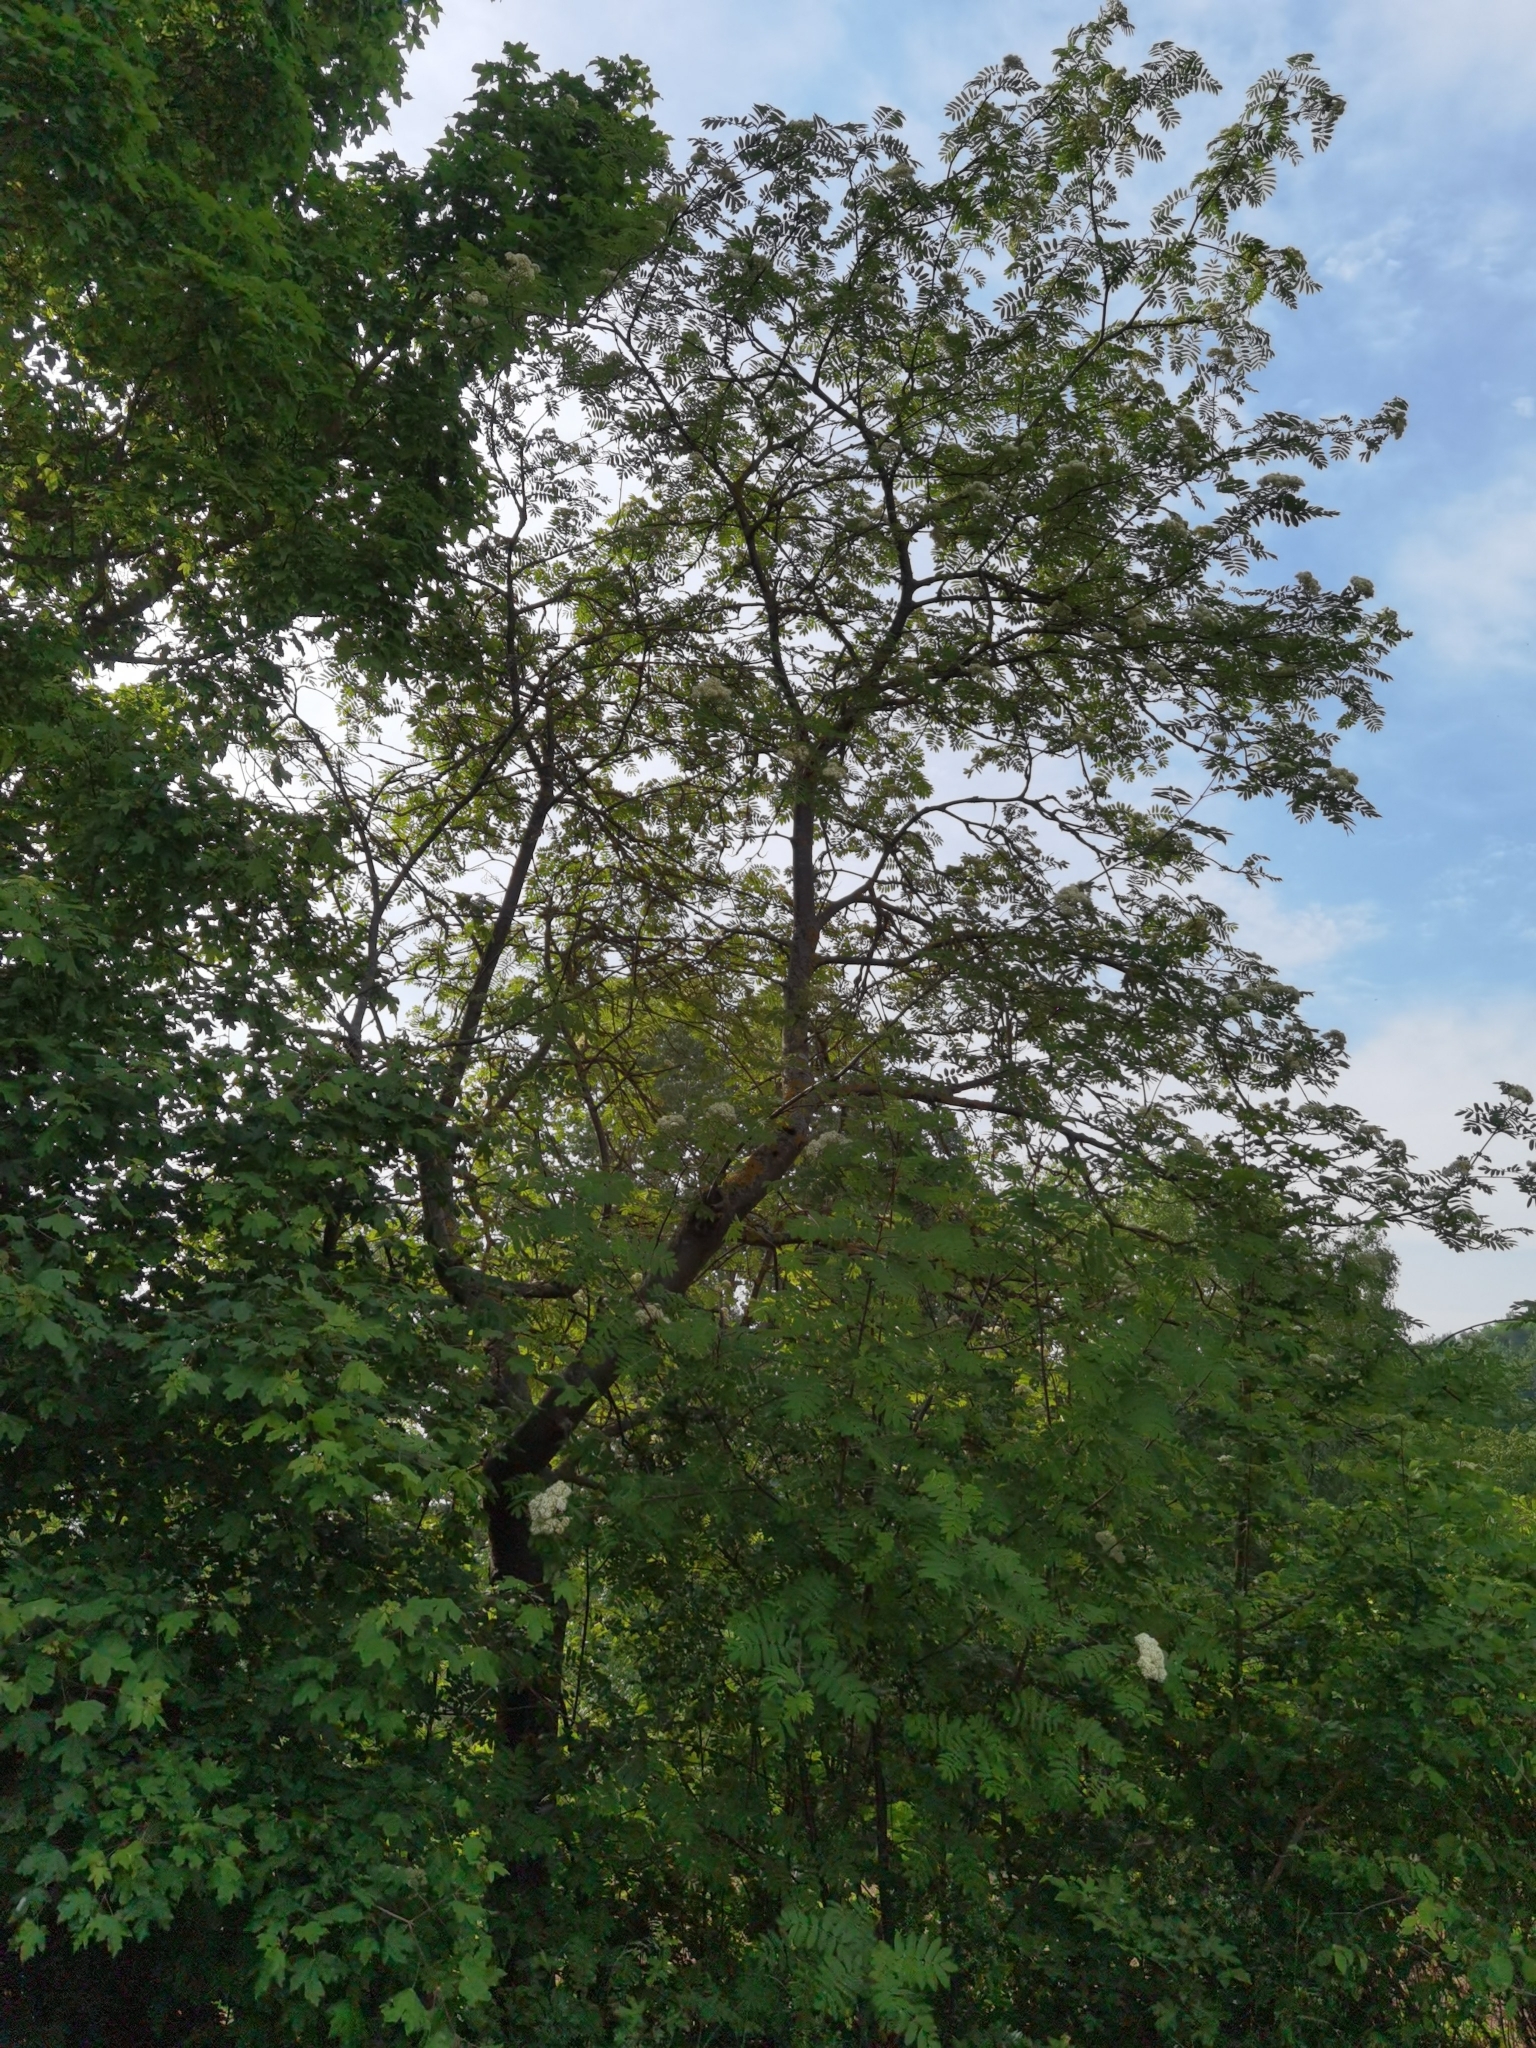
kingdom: Plantae
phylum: Tracheophyta
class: Magnoliopsida
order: Rosales
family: Rosaceae
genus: Sorbus
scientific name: Sorbus aucuparia
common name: Rowan
